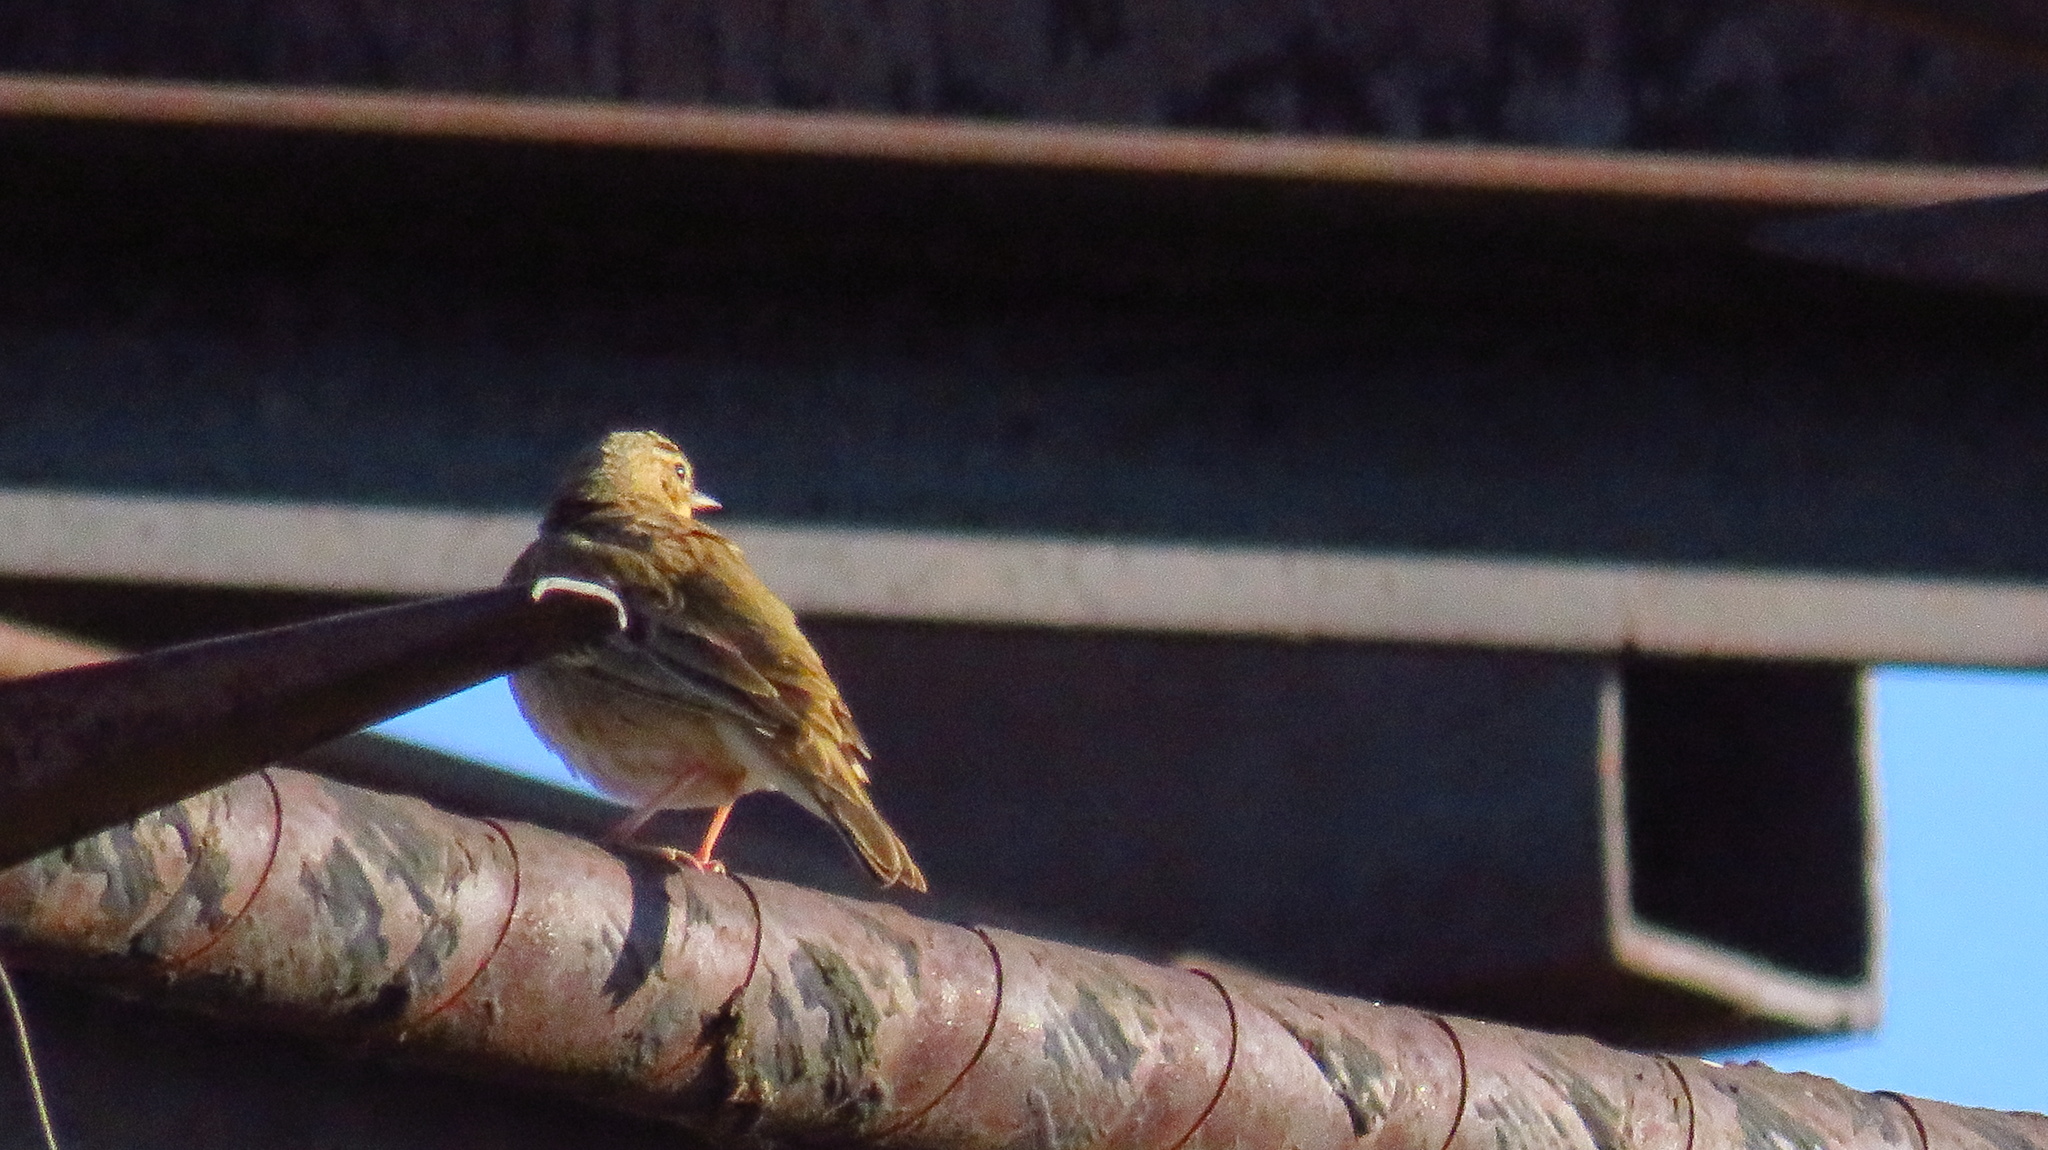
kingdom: Animalia
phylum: Chordata
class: Aves
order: Passeriformes
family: Motacillidae
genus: Anthus
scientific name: Anthus trivialis
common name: Tree pipit
